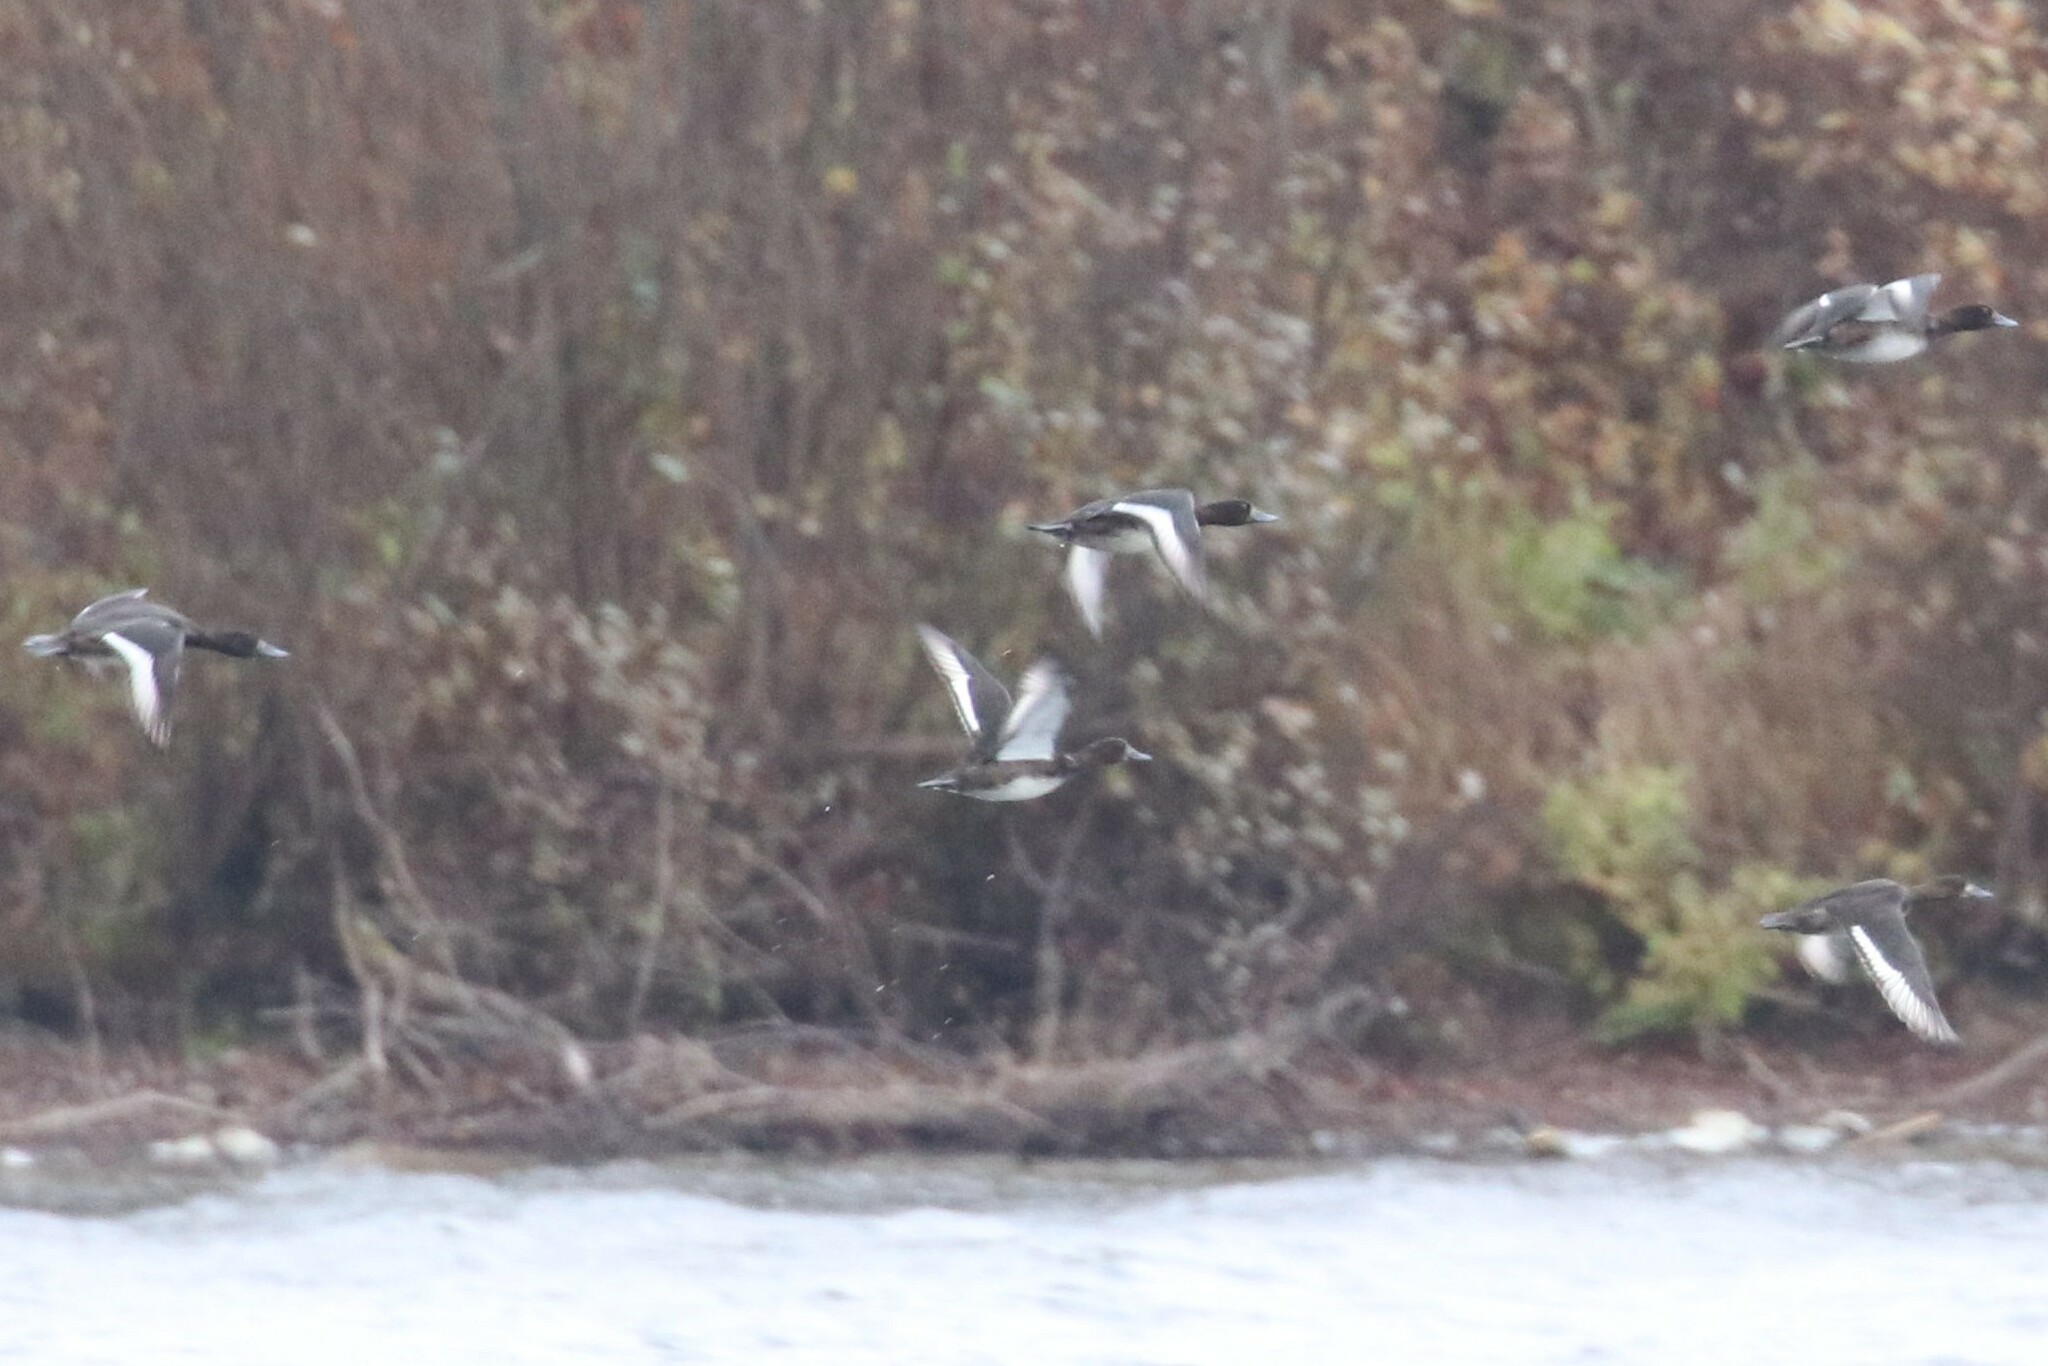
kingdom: Animalia
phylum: Chordata
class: Aves
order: Anseriformes
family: Anatidae
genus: Aythya
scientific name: Aythya fuligula
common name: Tufted duck
